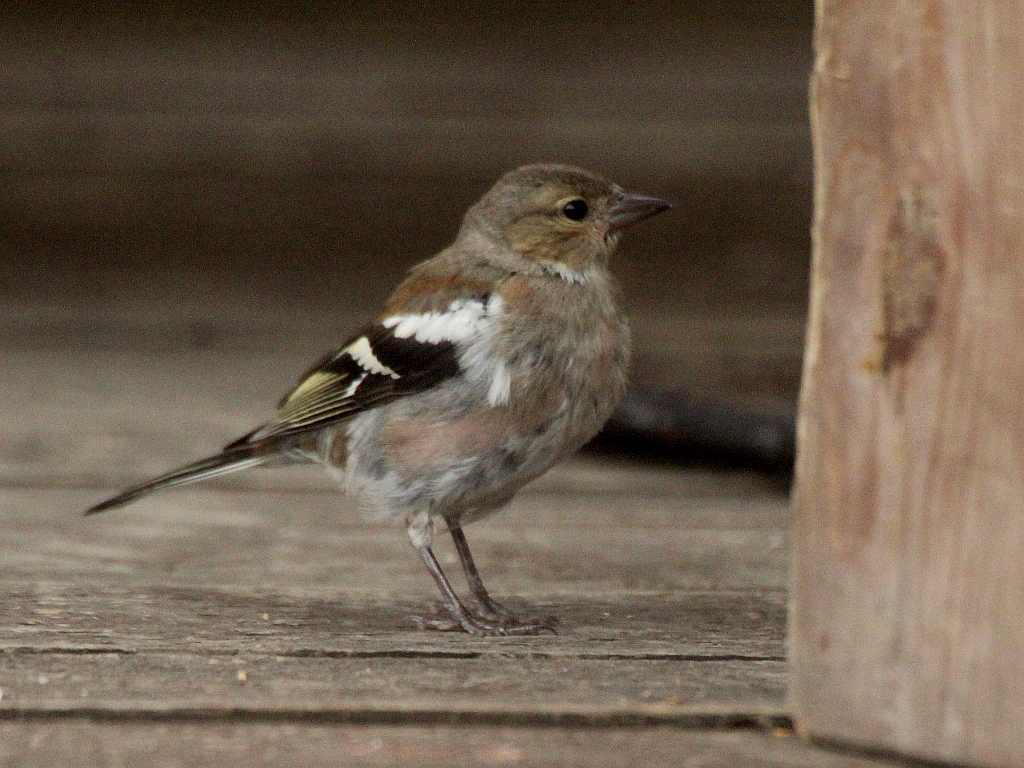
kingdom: Animalia
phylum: Chordata
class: Aves
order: Passeriformes
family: Fringillidae
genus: Fringilla
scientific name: Fringilla coelebs
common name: Common chaffinch
